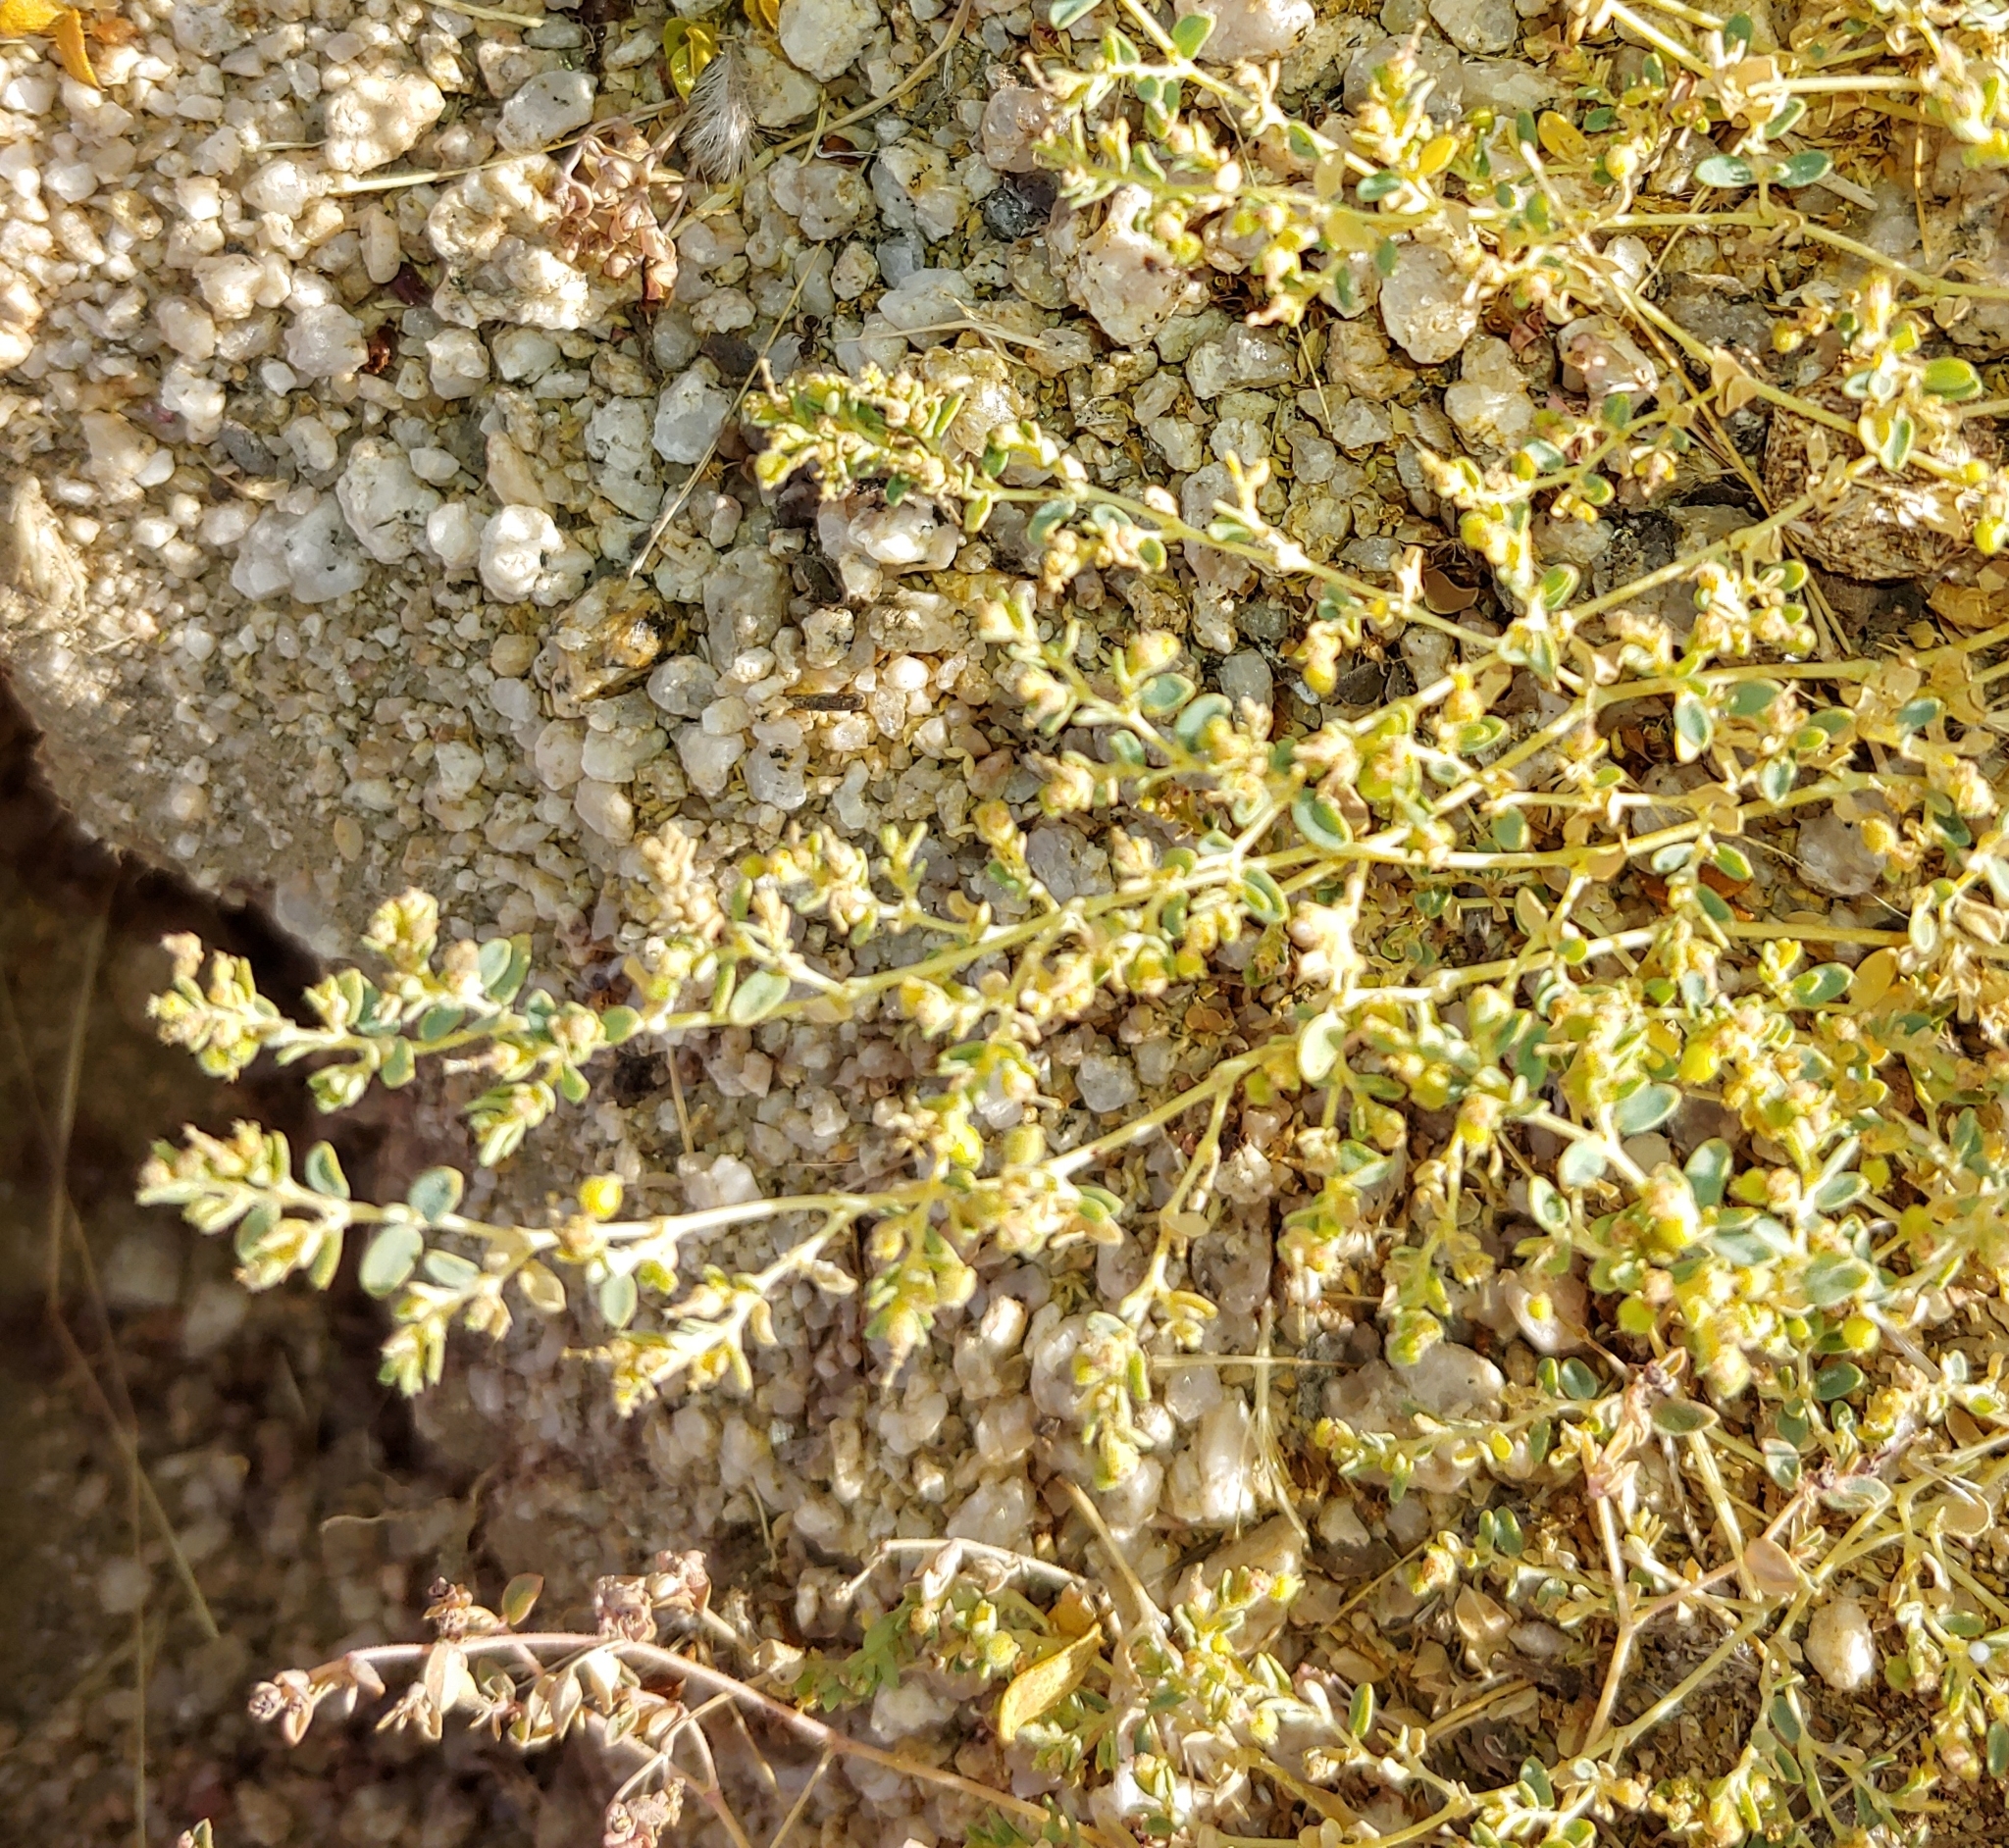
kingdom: Plantae
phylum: Tracheophyta
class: Magnoliopsida
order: Malpighiales
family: Euphorbiaceae
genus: Euphorbia
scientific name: Euphorbia polycarpa
